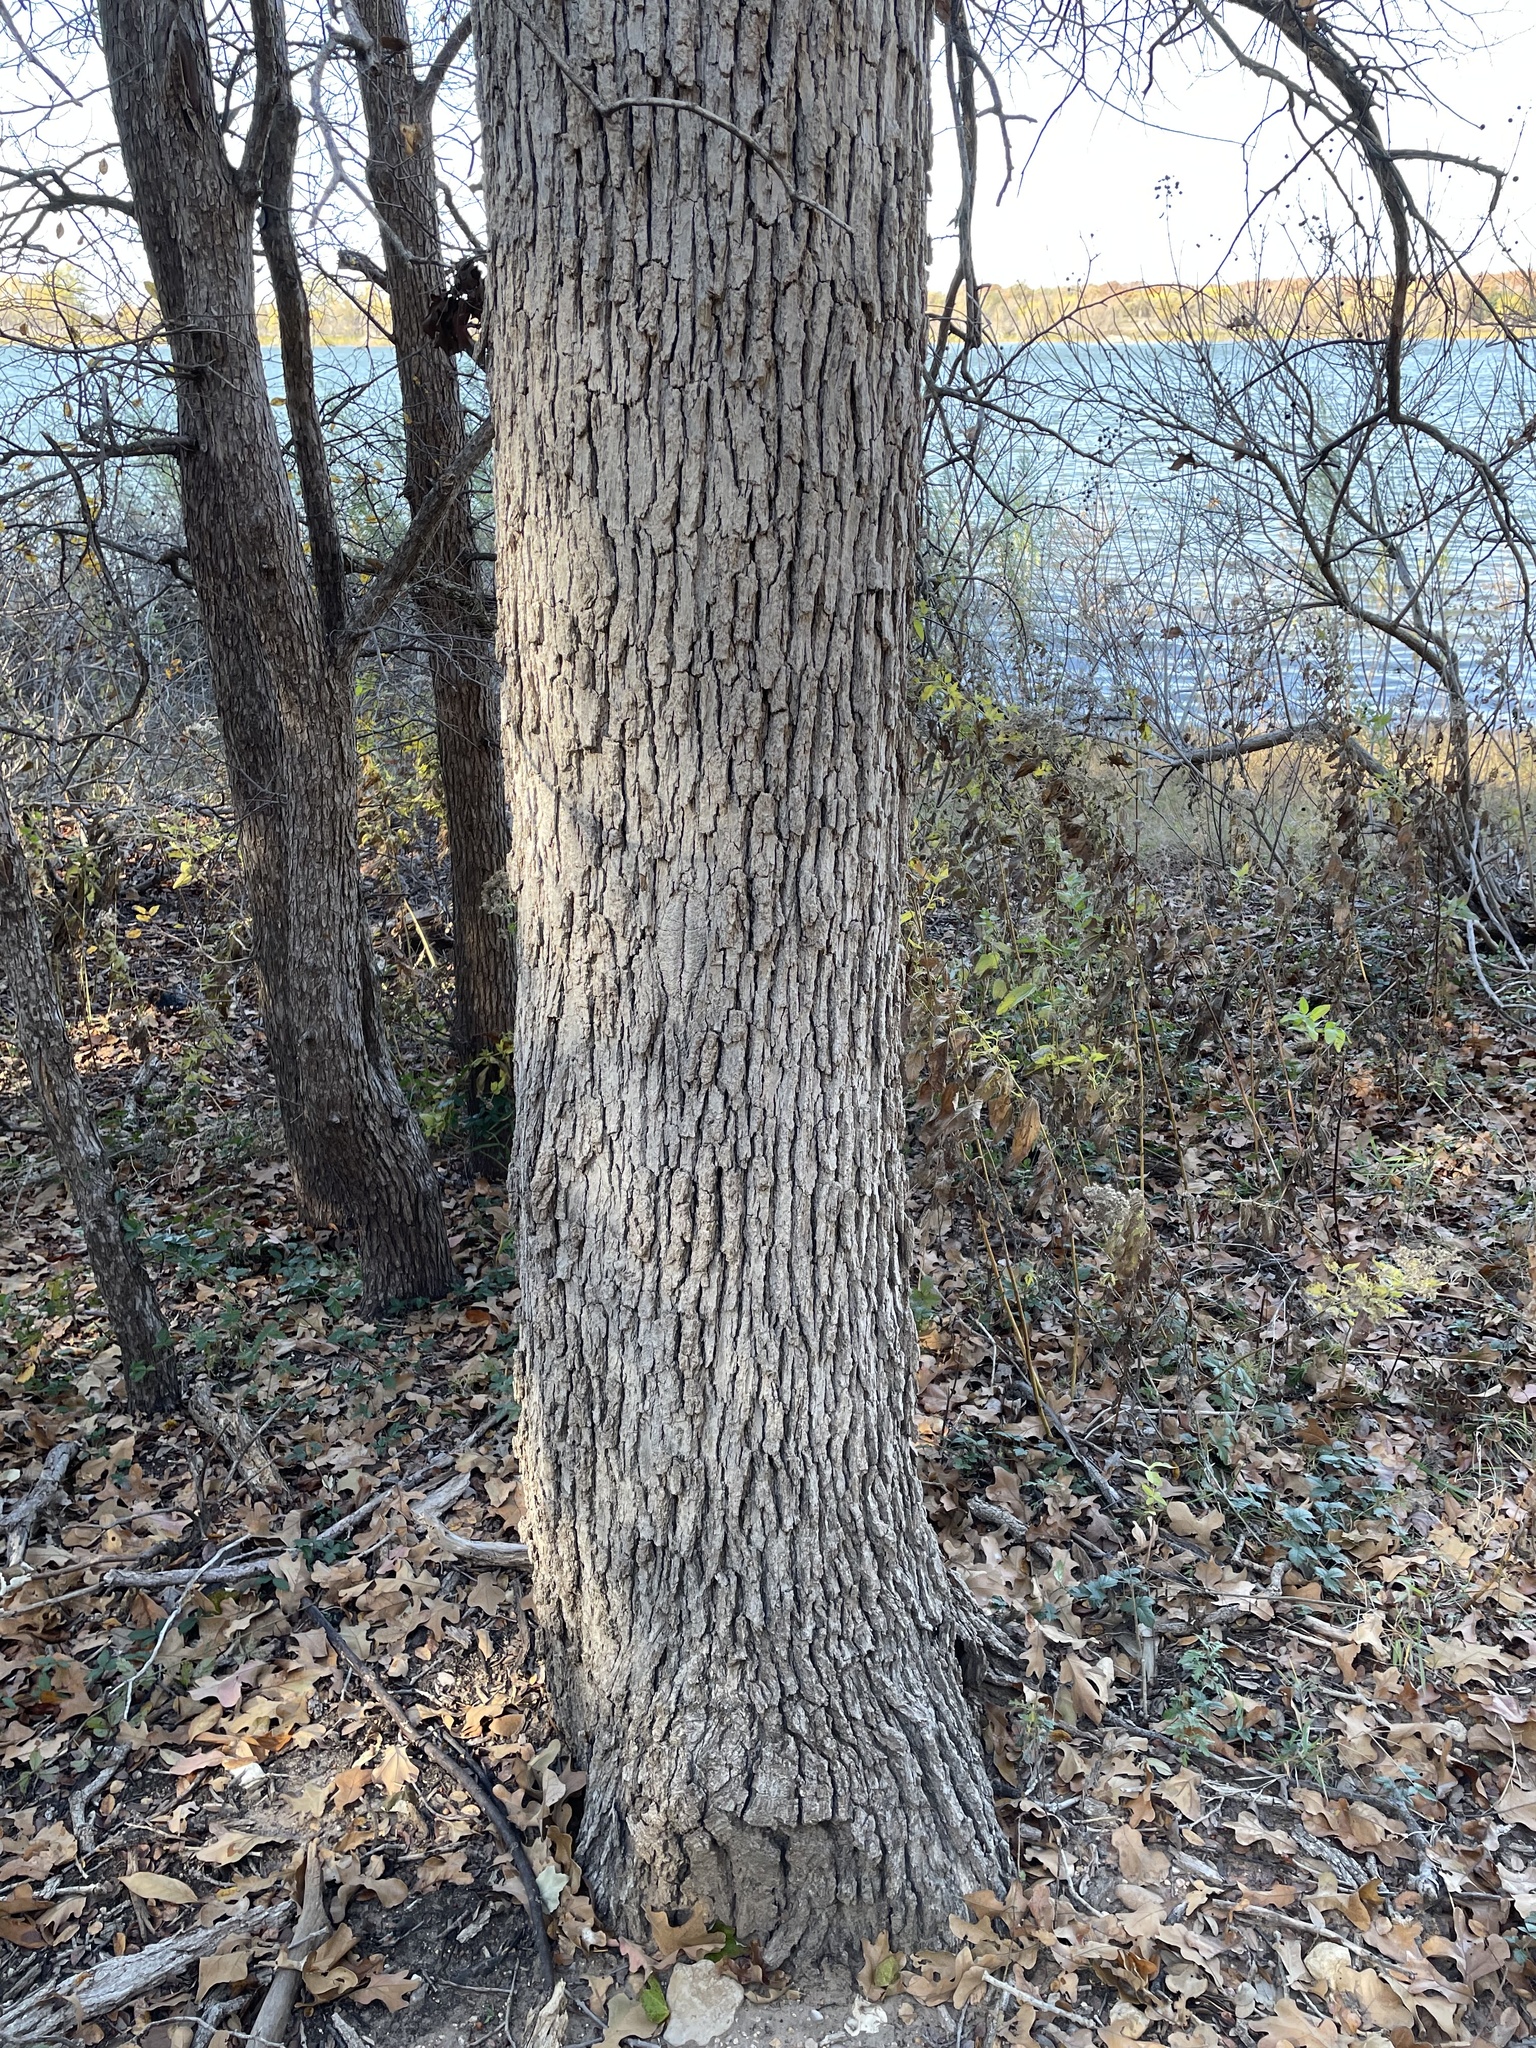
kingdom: Plantae
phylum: Tracheophyta
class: Magnoliopsida
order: Fagales
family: Fagaceae
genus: Quercus
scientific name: Quercus stellata
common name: Post oak
